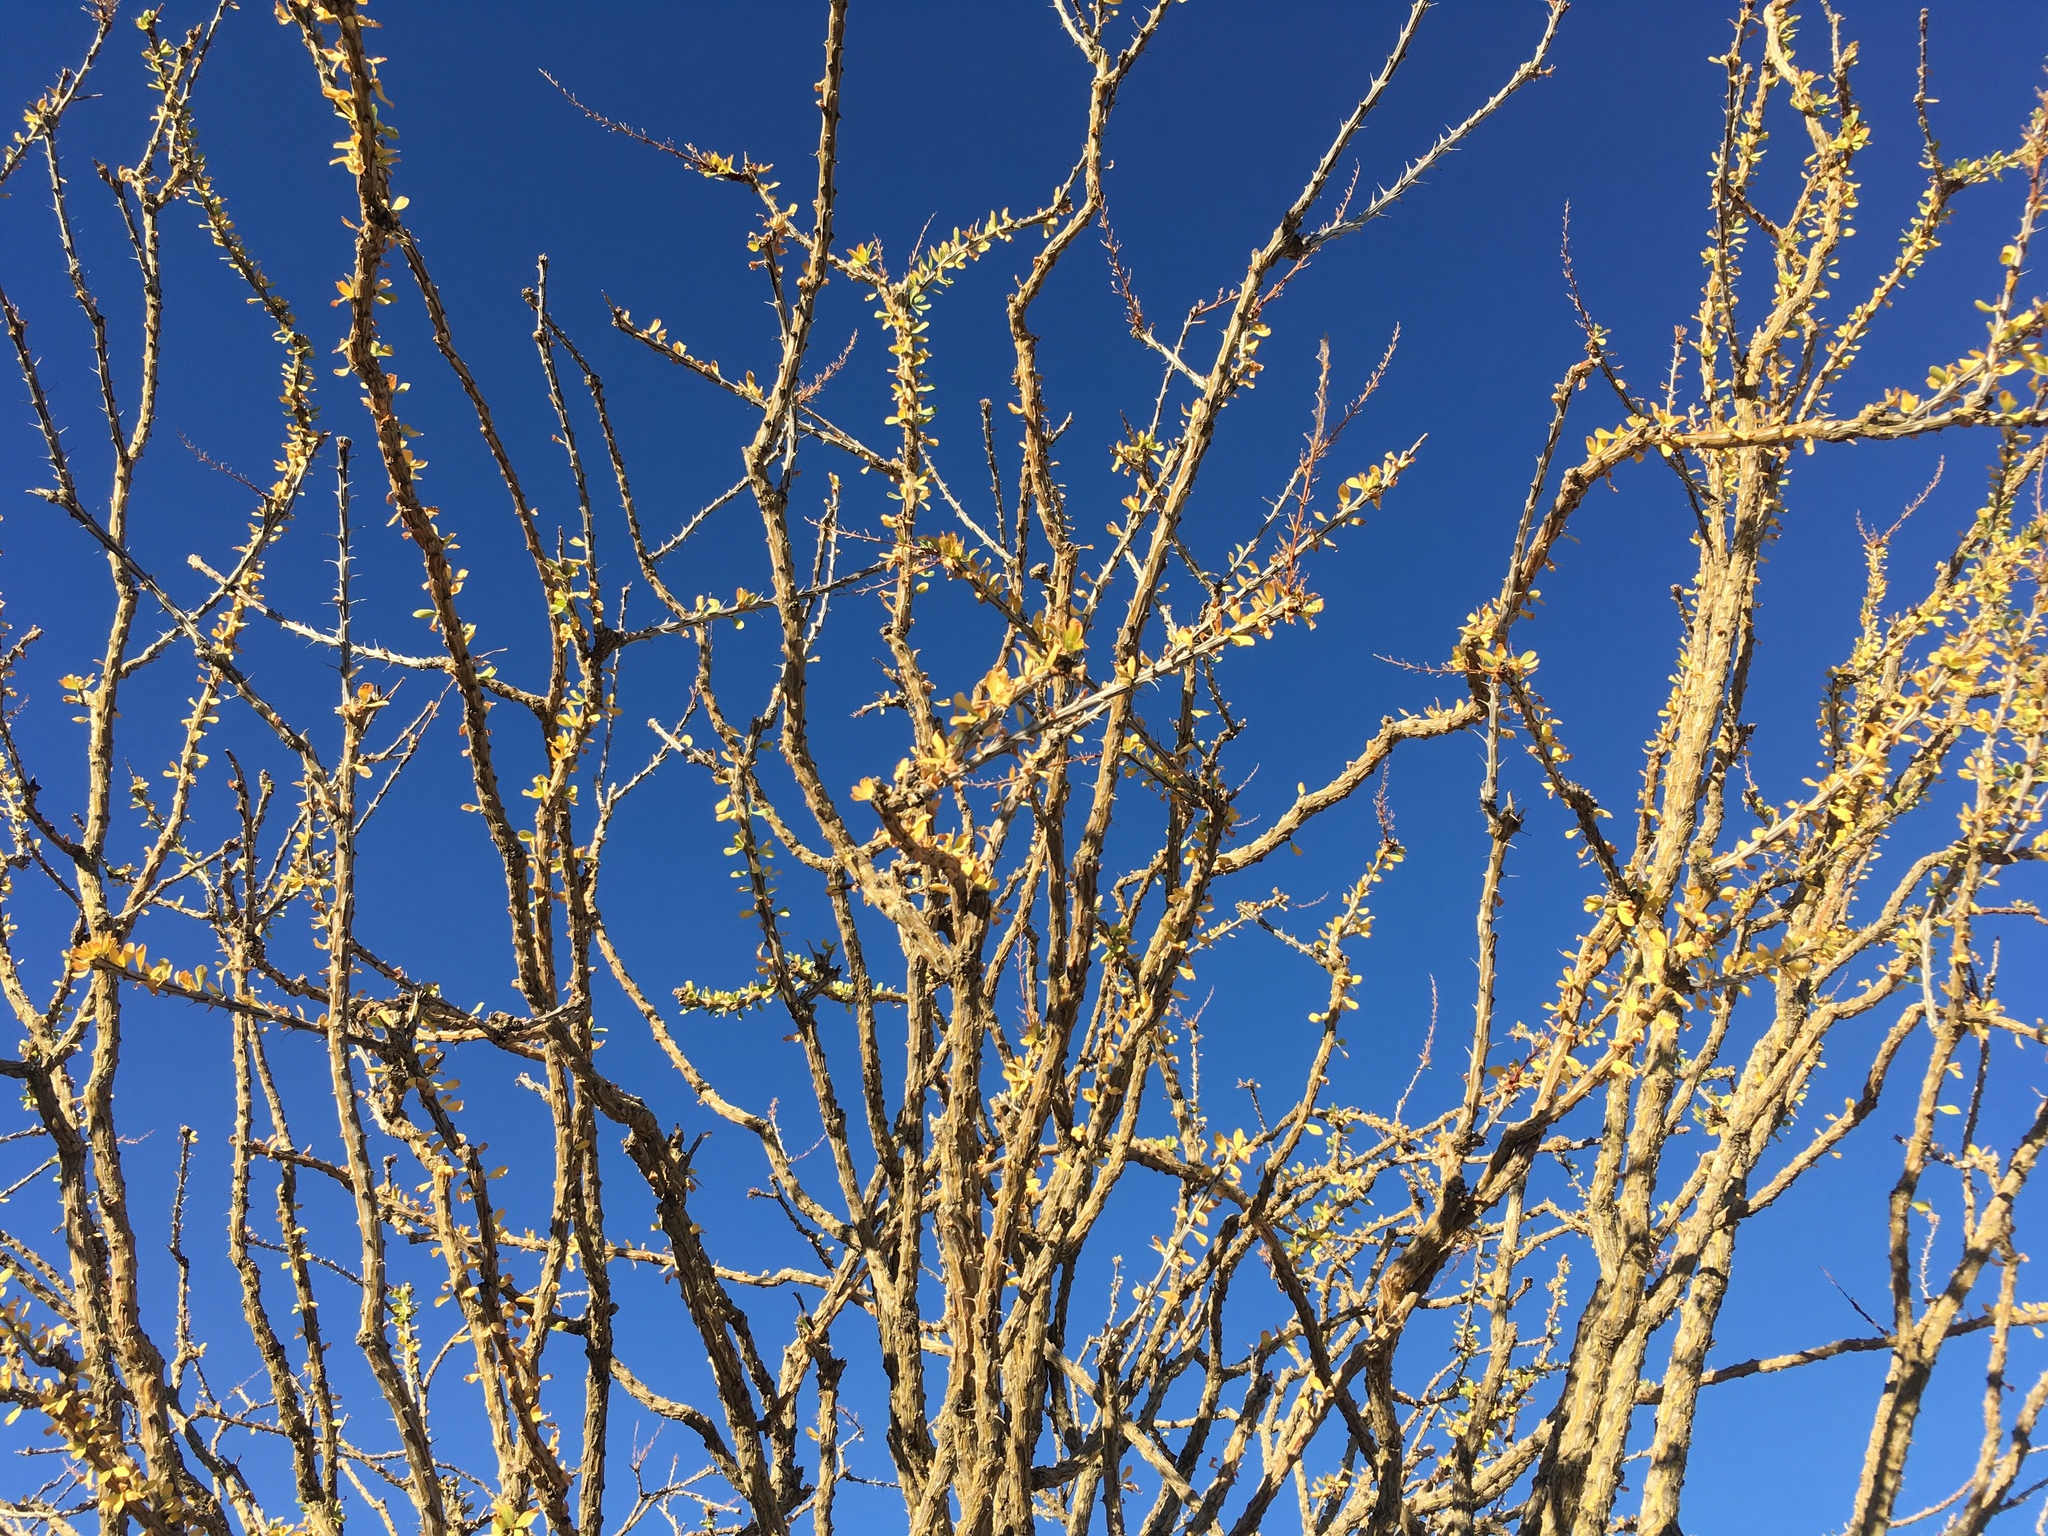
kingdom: Plantae
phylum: Tracheophyta
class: Magnoliopsida
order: Ericales
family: Fouquieriaceae
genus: Fouquieria
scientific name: Fouquieria splendens
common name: Vine-cactus
